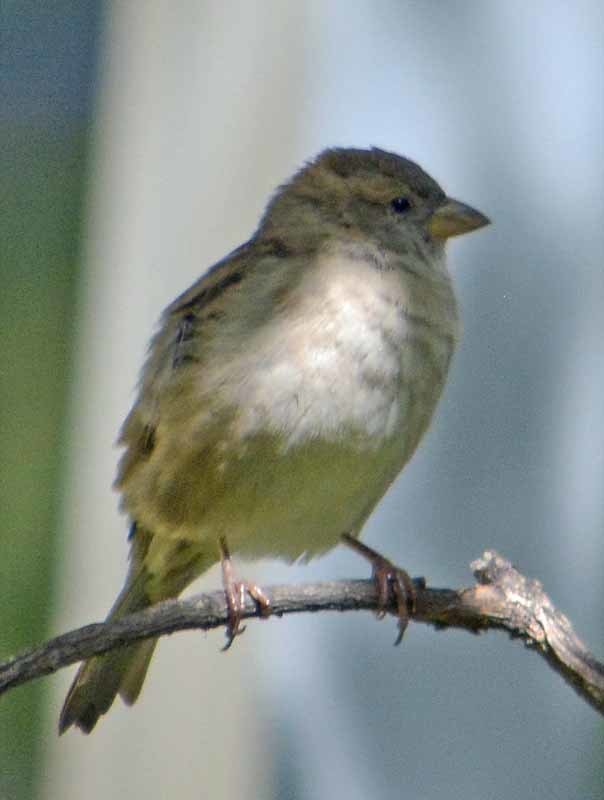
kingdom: Animalia
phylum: Chordata
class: Aves
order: Passeriformes
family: Passeridae
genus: Passer
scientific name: Passer domesticus
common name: House sparrow
